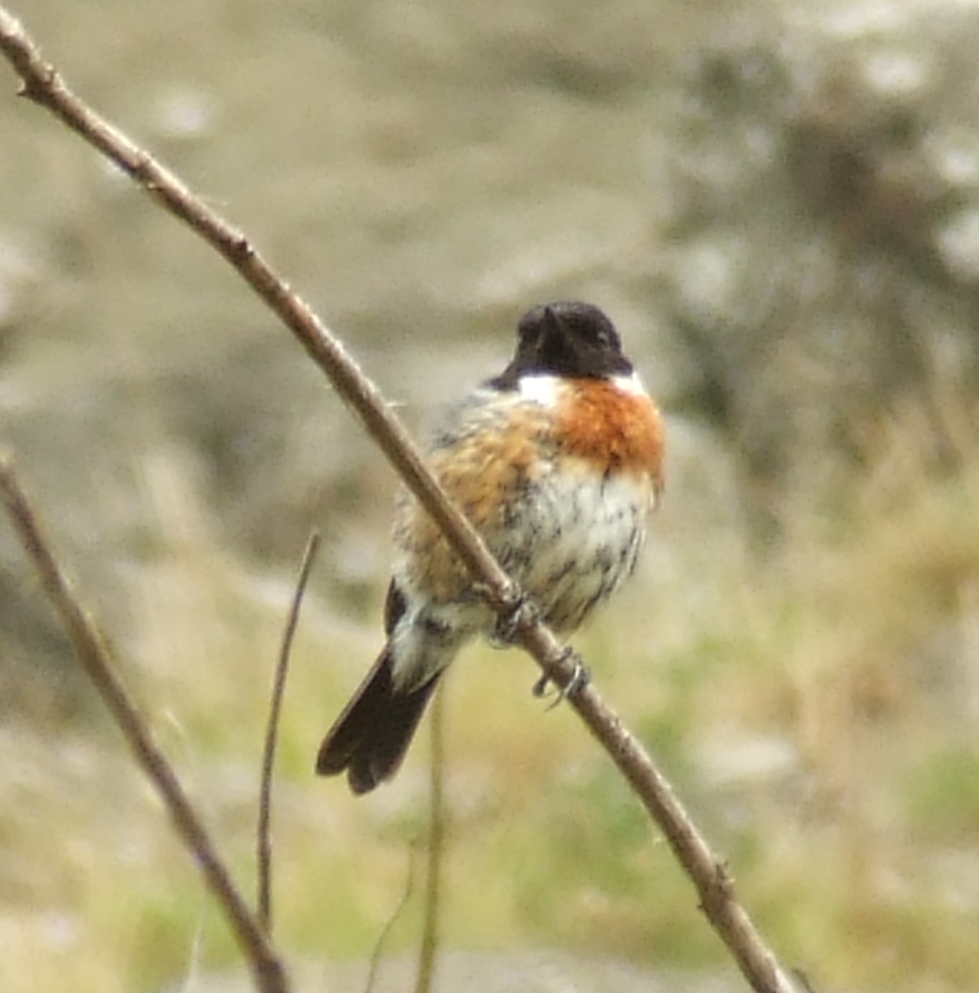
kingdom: Animalia
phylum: Chordata
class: Aves
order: Passeriformes
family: Muscicapidae
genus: Saxicola
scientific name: Saxicola rubicola
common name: European stonechat
